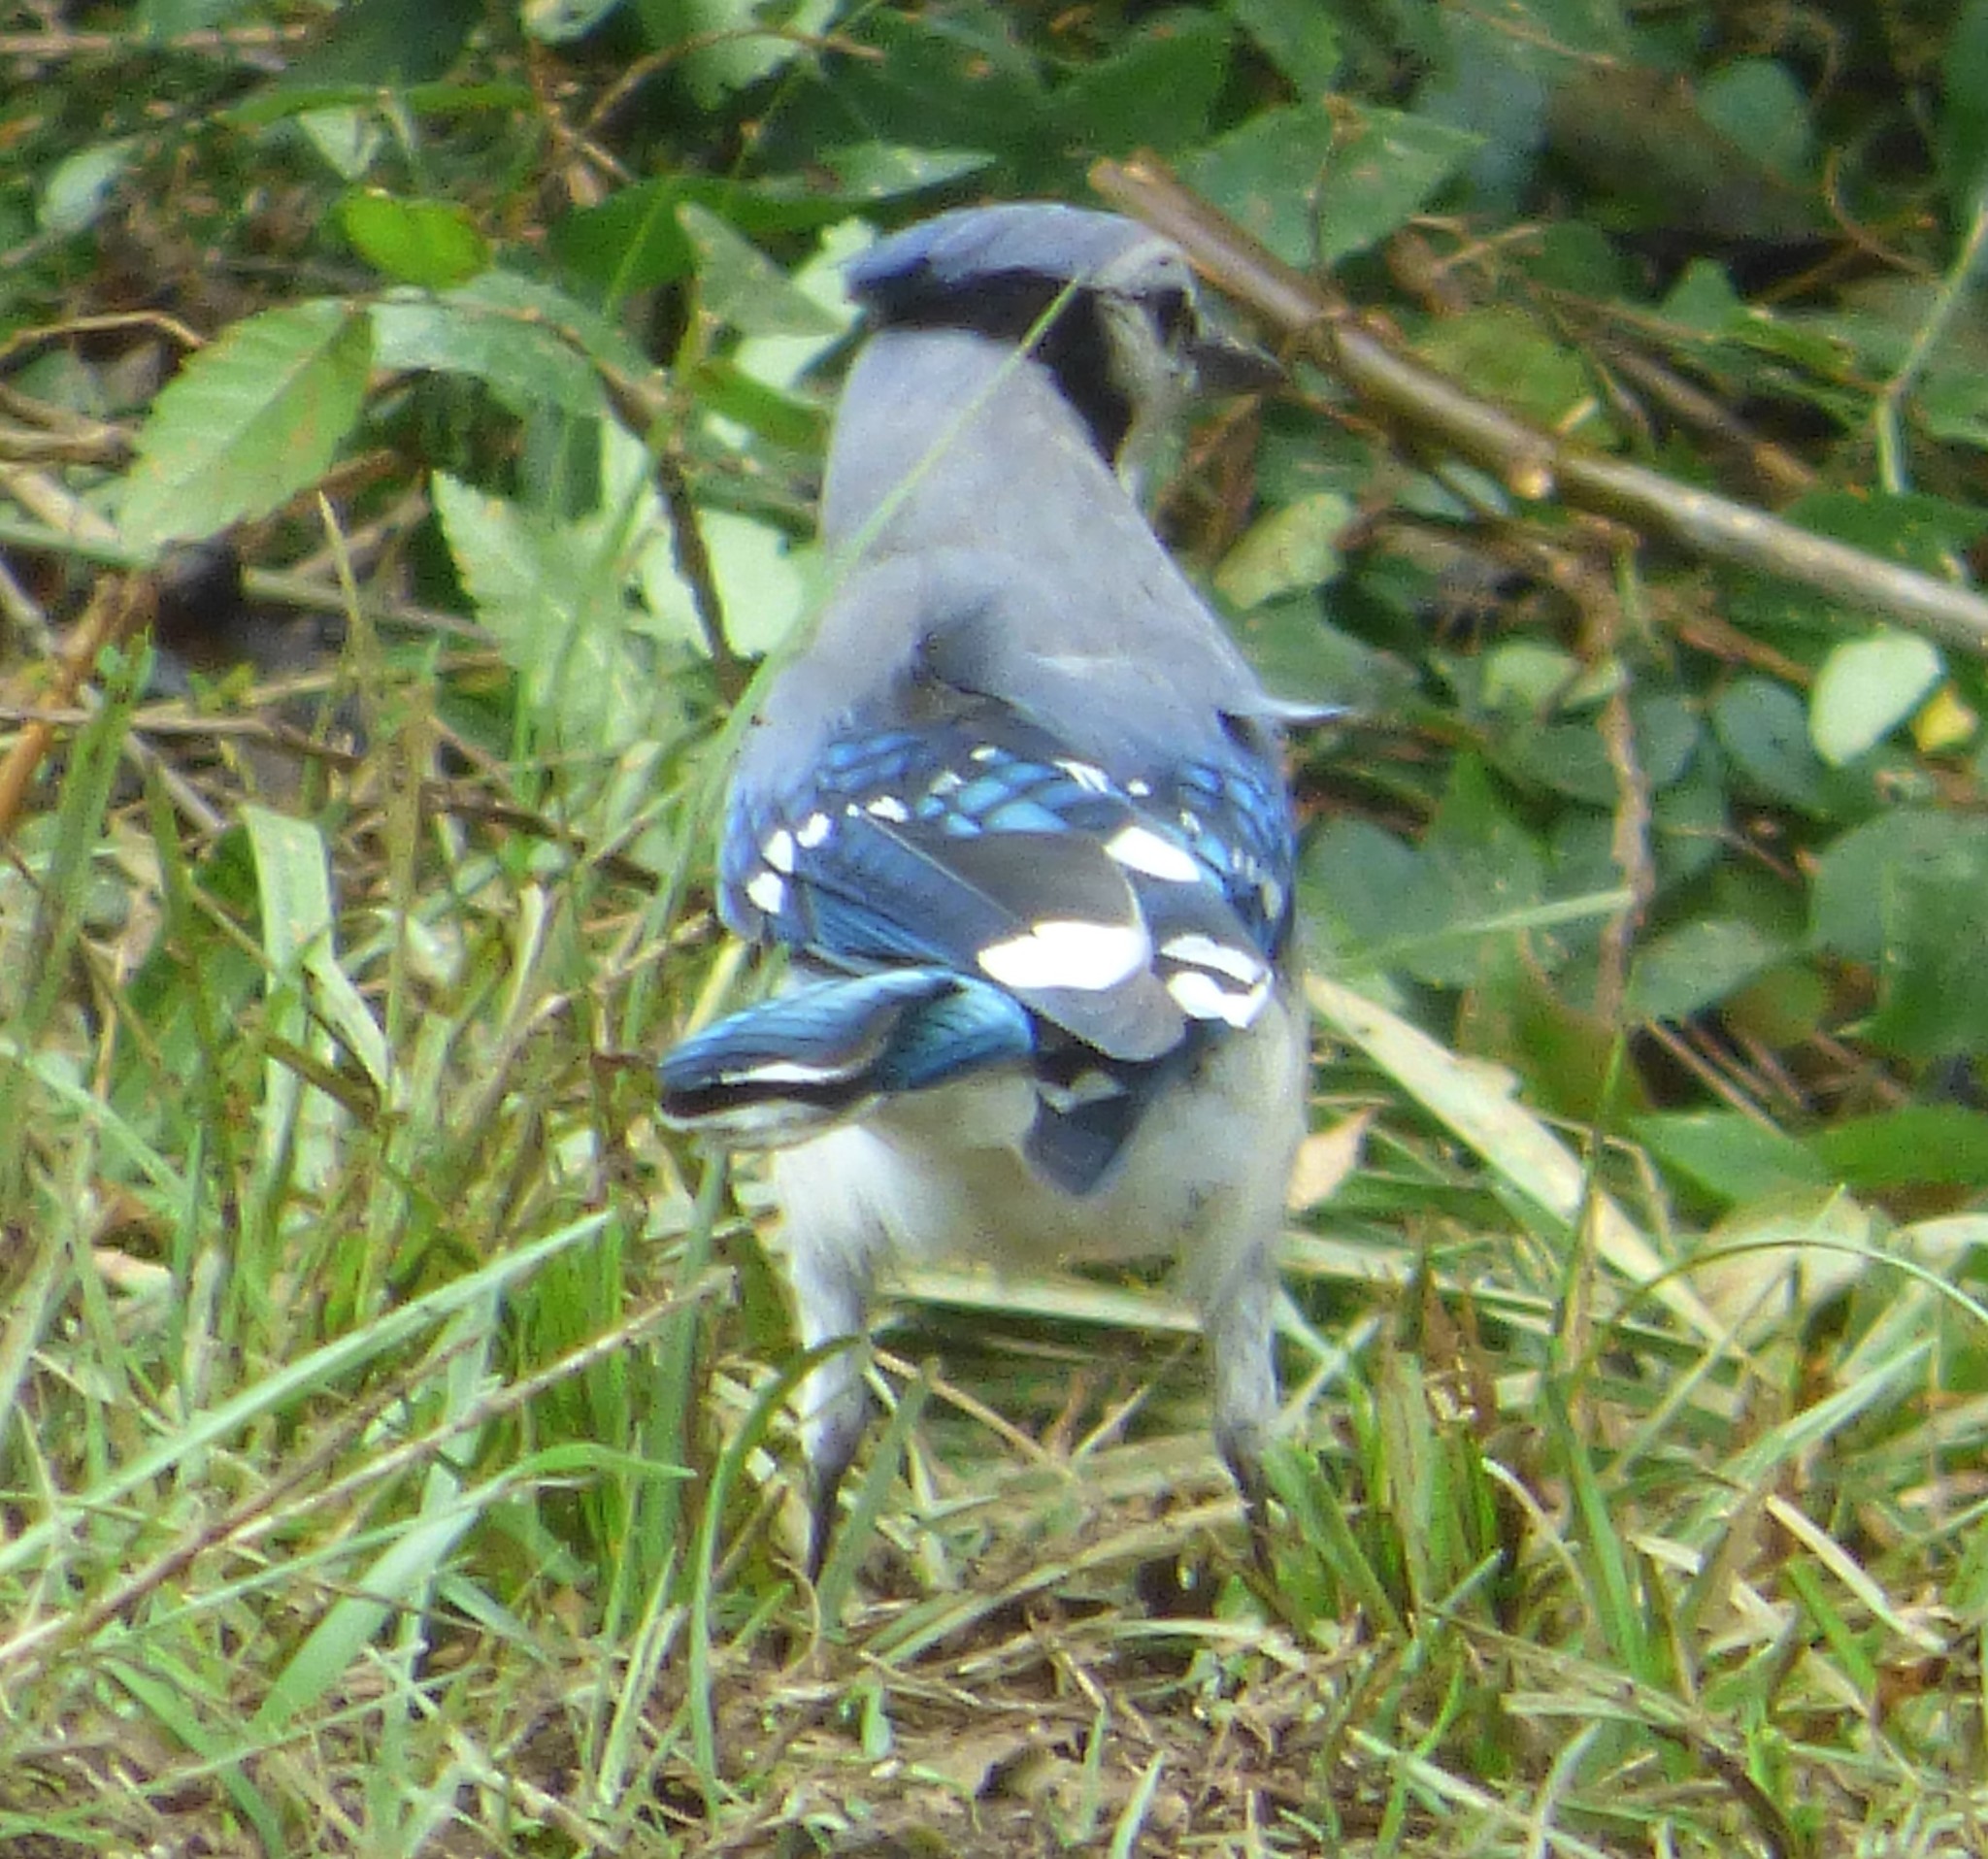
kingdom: Animalia
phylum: Chordata
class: Aves
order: Passeriformes
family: Corvidae
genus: Cyanocitta
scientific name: Cyanocitta cristata
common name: Blue jay
